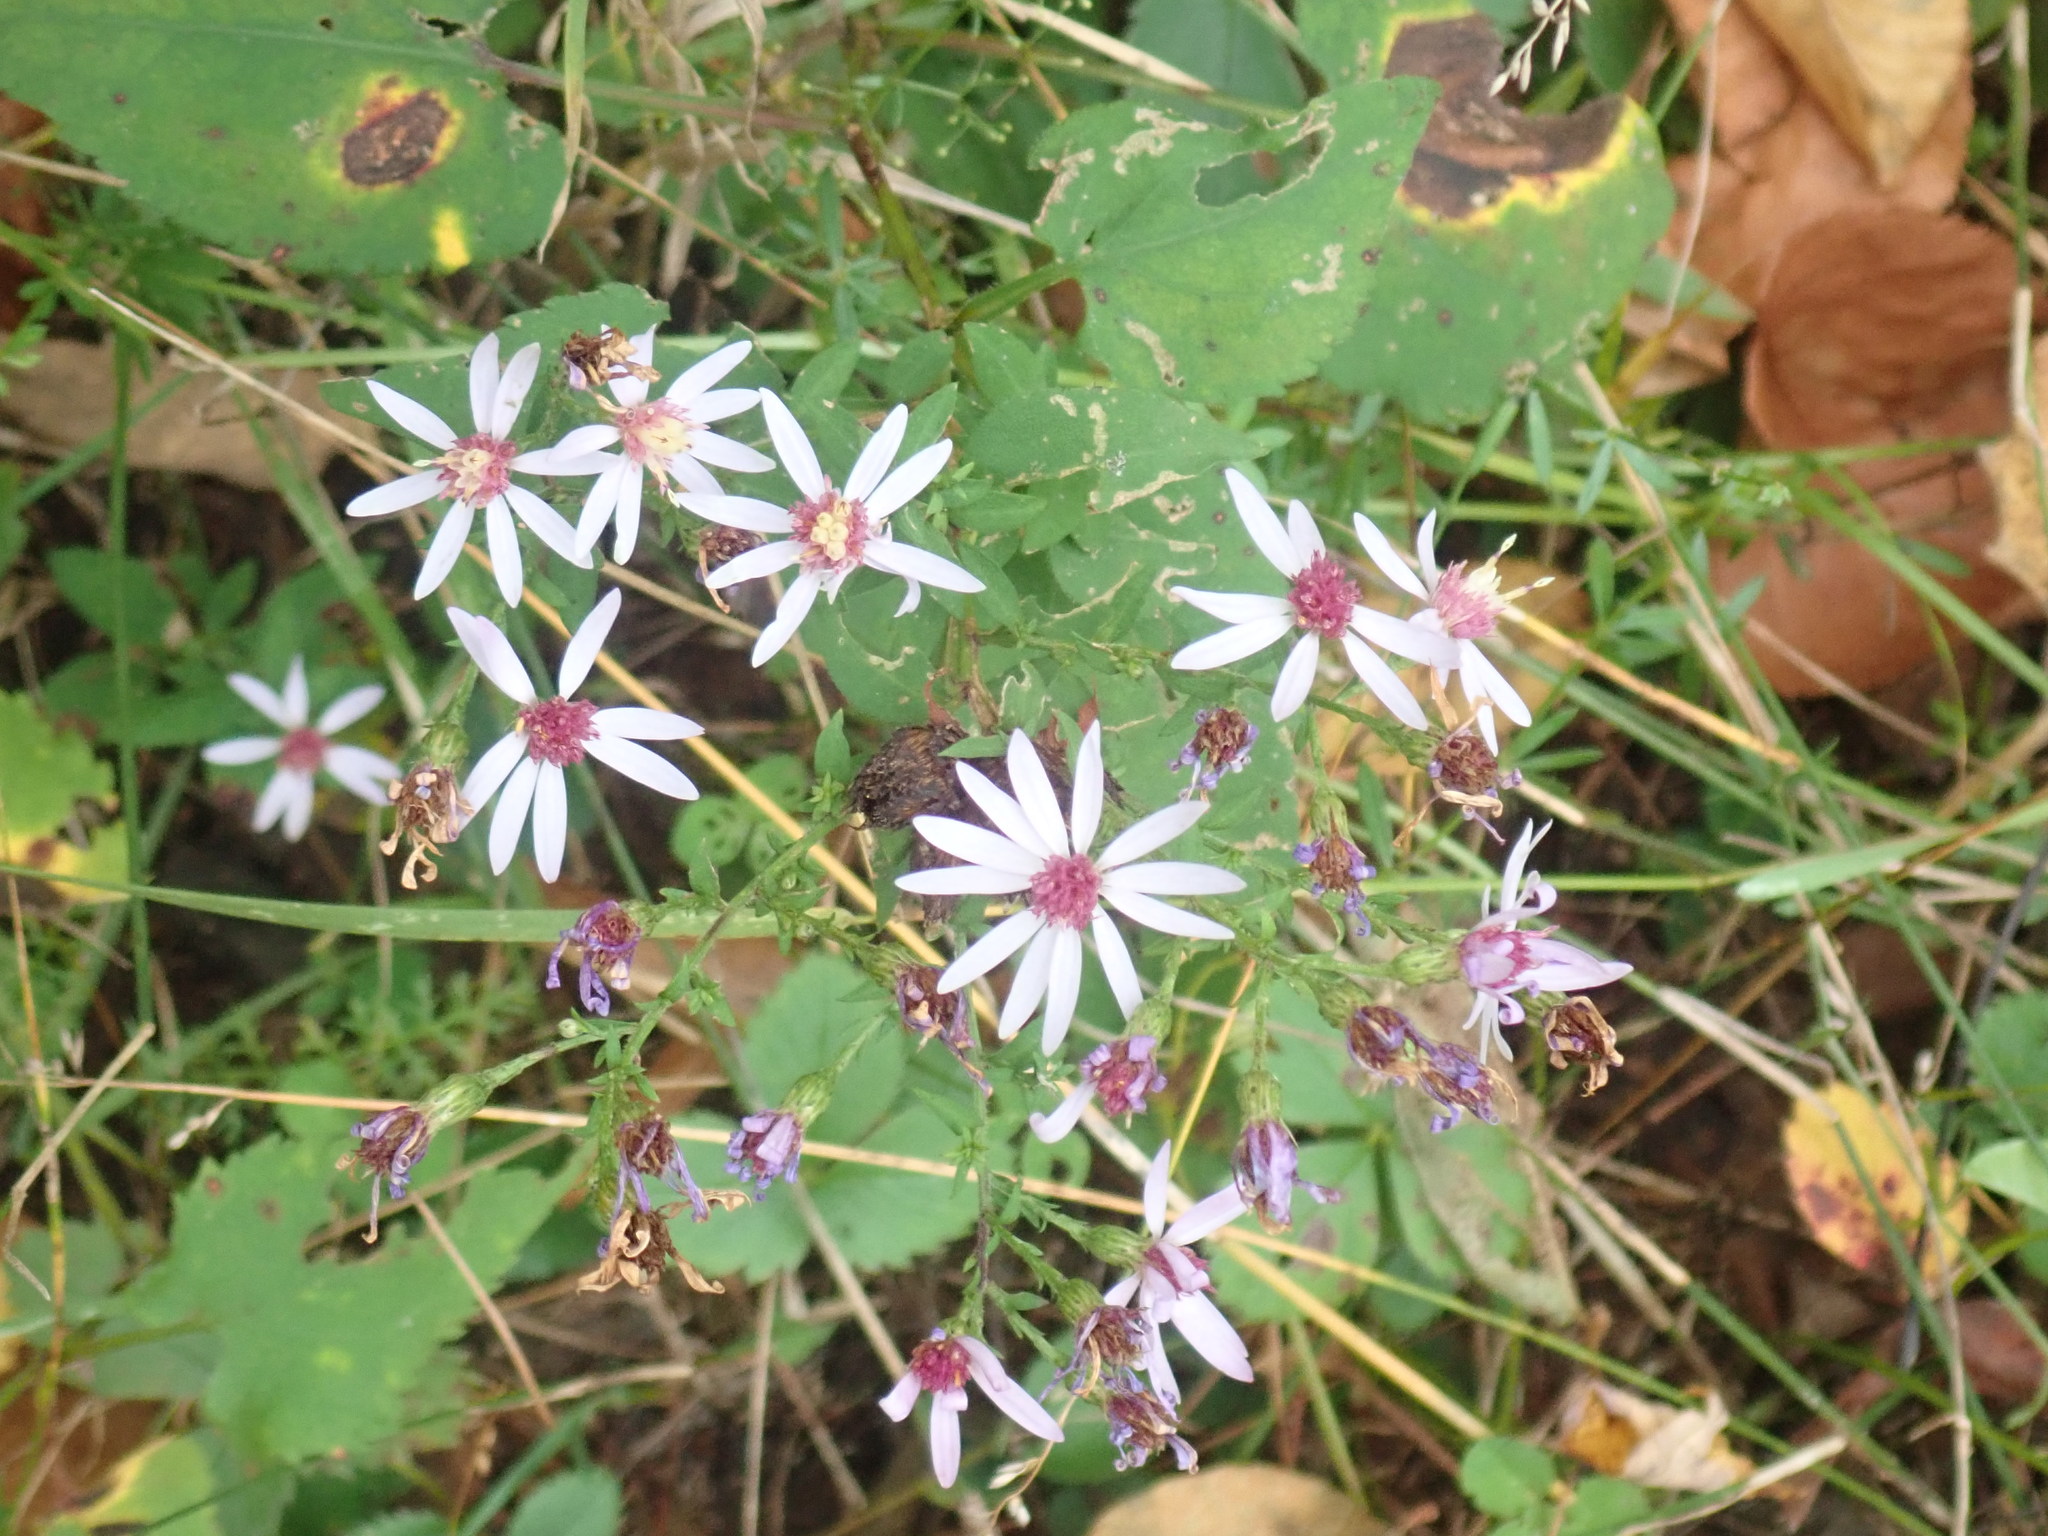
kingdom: Plantae
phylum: Tracheophyta
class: Magnoliopsida
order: Asterales
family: Asteraceae
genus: Symphyotrichum
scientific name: Symphyotrichum cordifolium
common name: Beeweed
